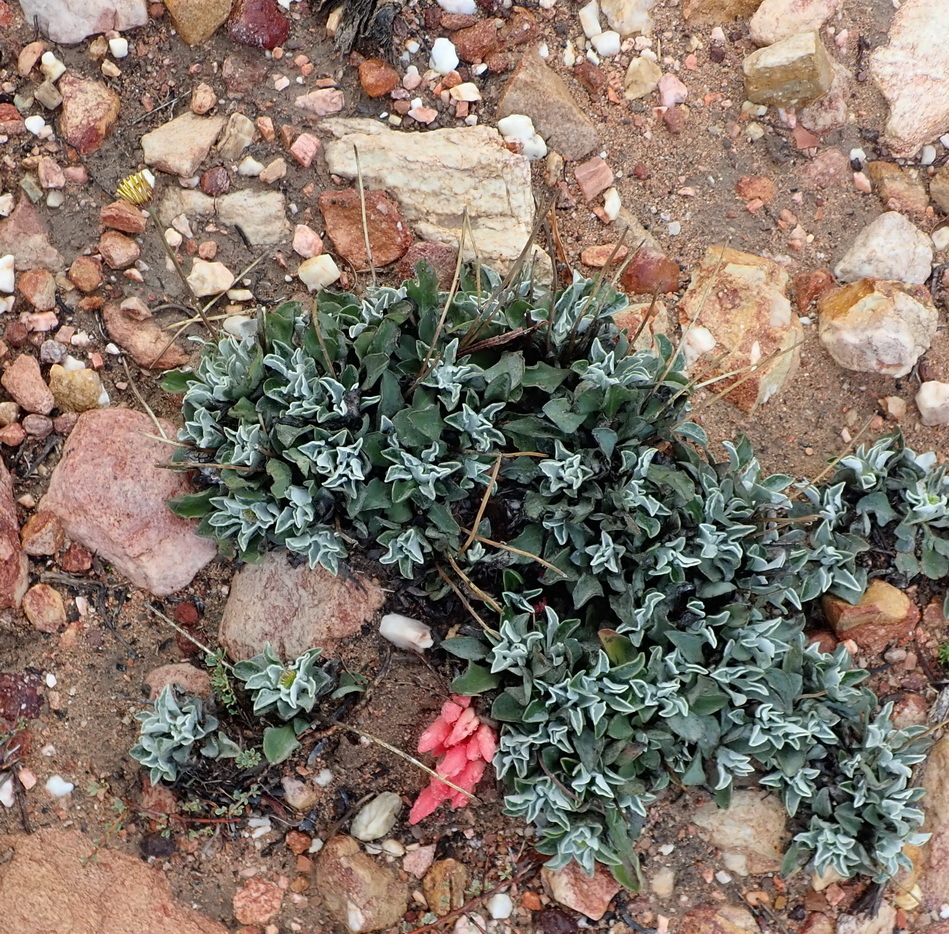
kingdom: Plantae
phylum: Tracheophyta
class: Magnoliopsida
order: Asterales
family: Asteraceae
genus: Osteospermum
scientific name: Osteospermum tomentosum
